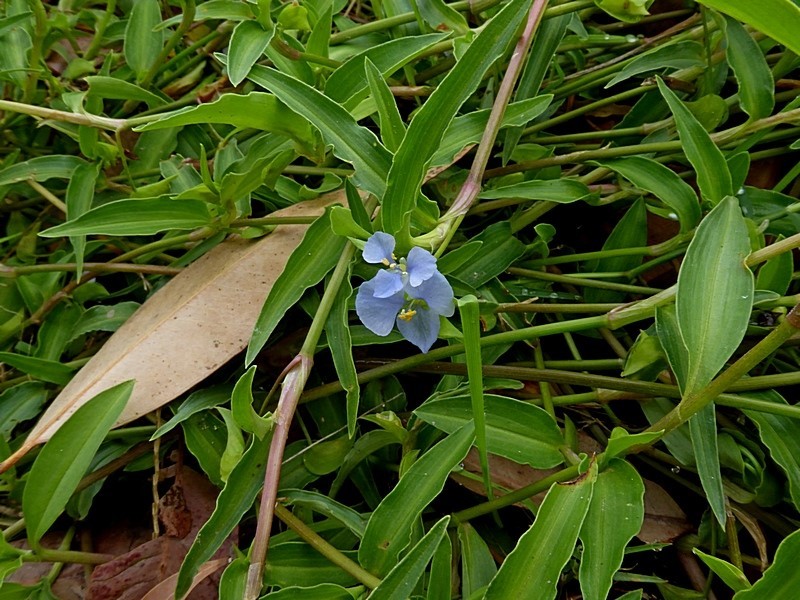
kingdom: Plantae
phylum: Tracheophyta
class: Liliopsida
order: Commelinales
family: Commelinaceae
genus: Commelina
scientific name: Commelina cyanea
